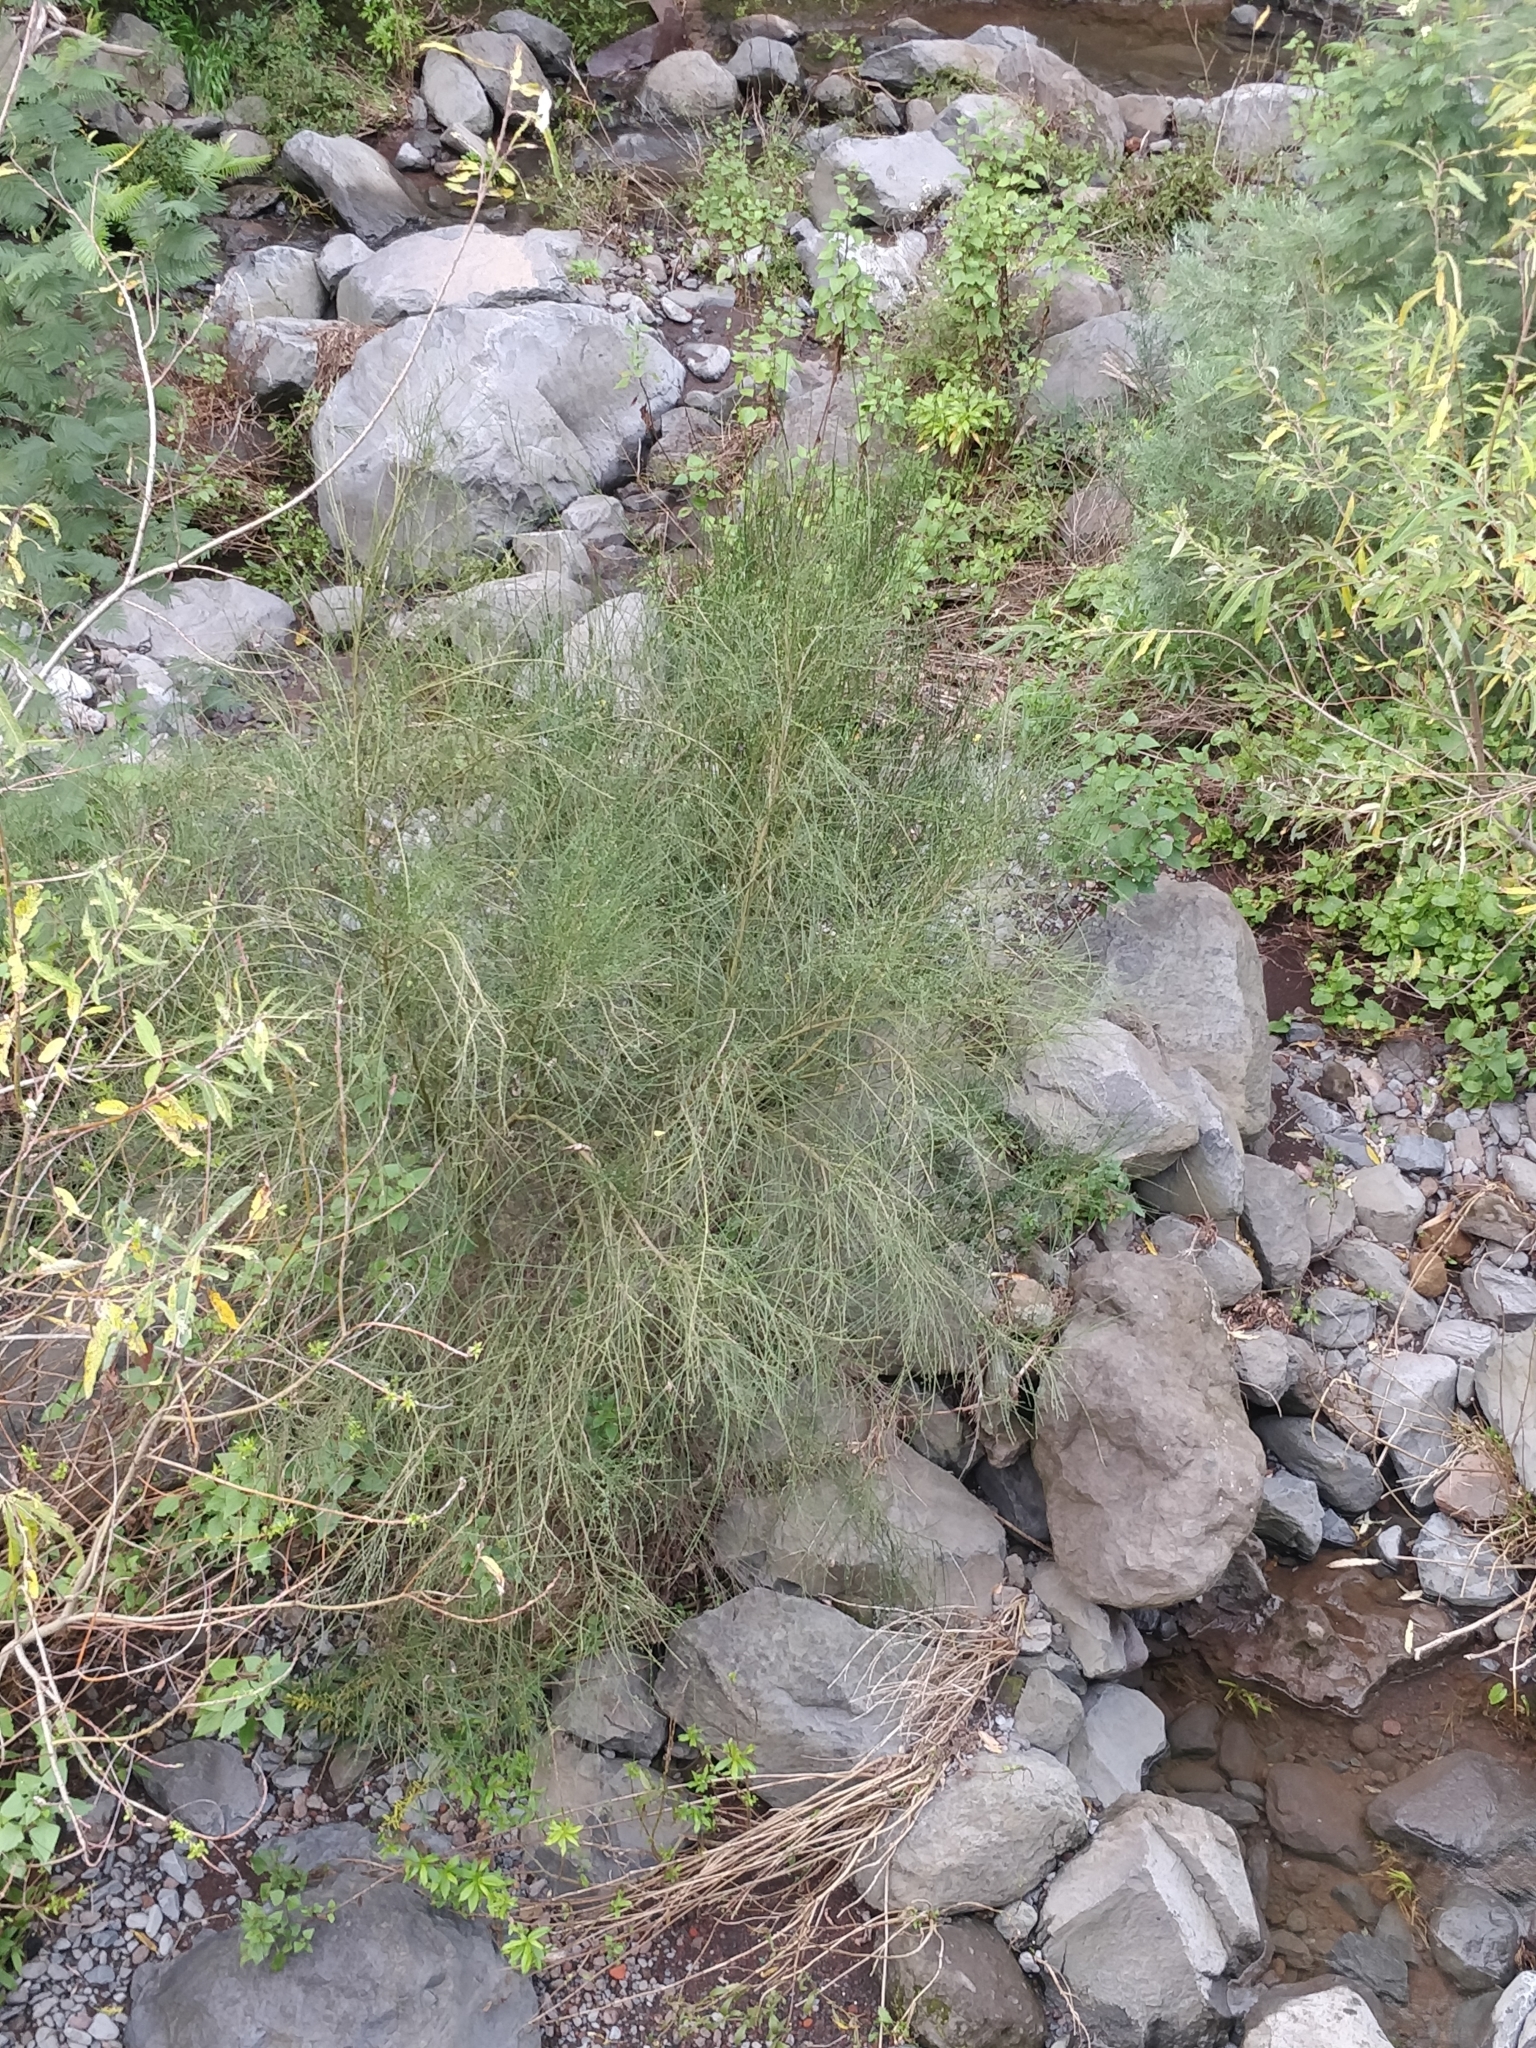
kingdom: Plantae
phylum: Tracheophyta
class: Magnoliopsida
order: Fabales
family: Fabaceae
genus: Cytisus
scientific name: Cytisus scoparius
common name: Scotch broom
